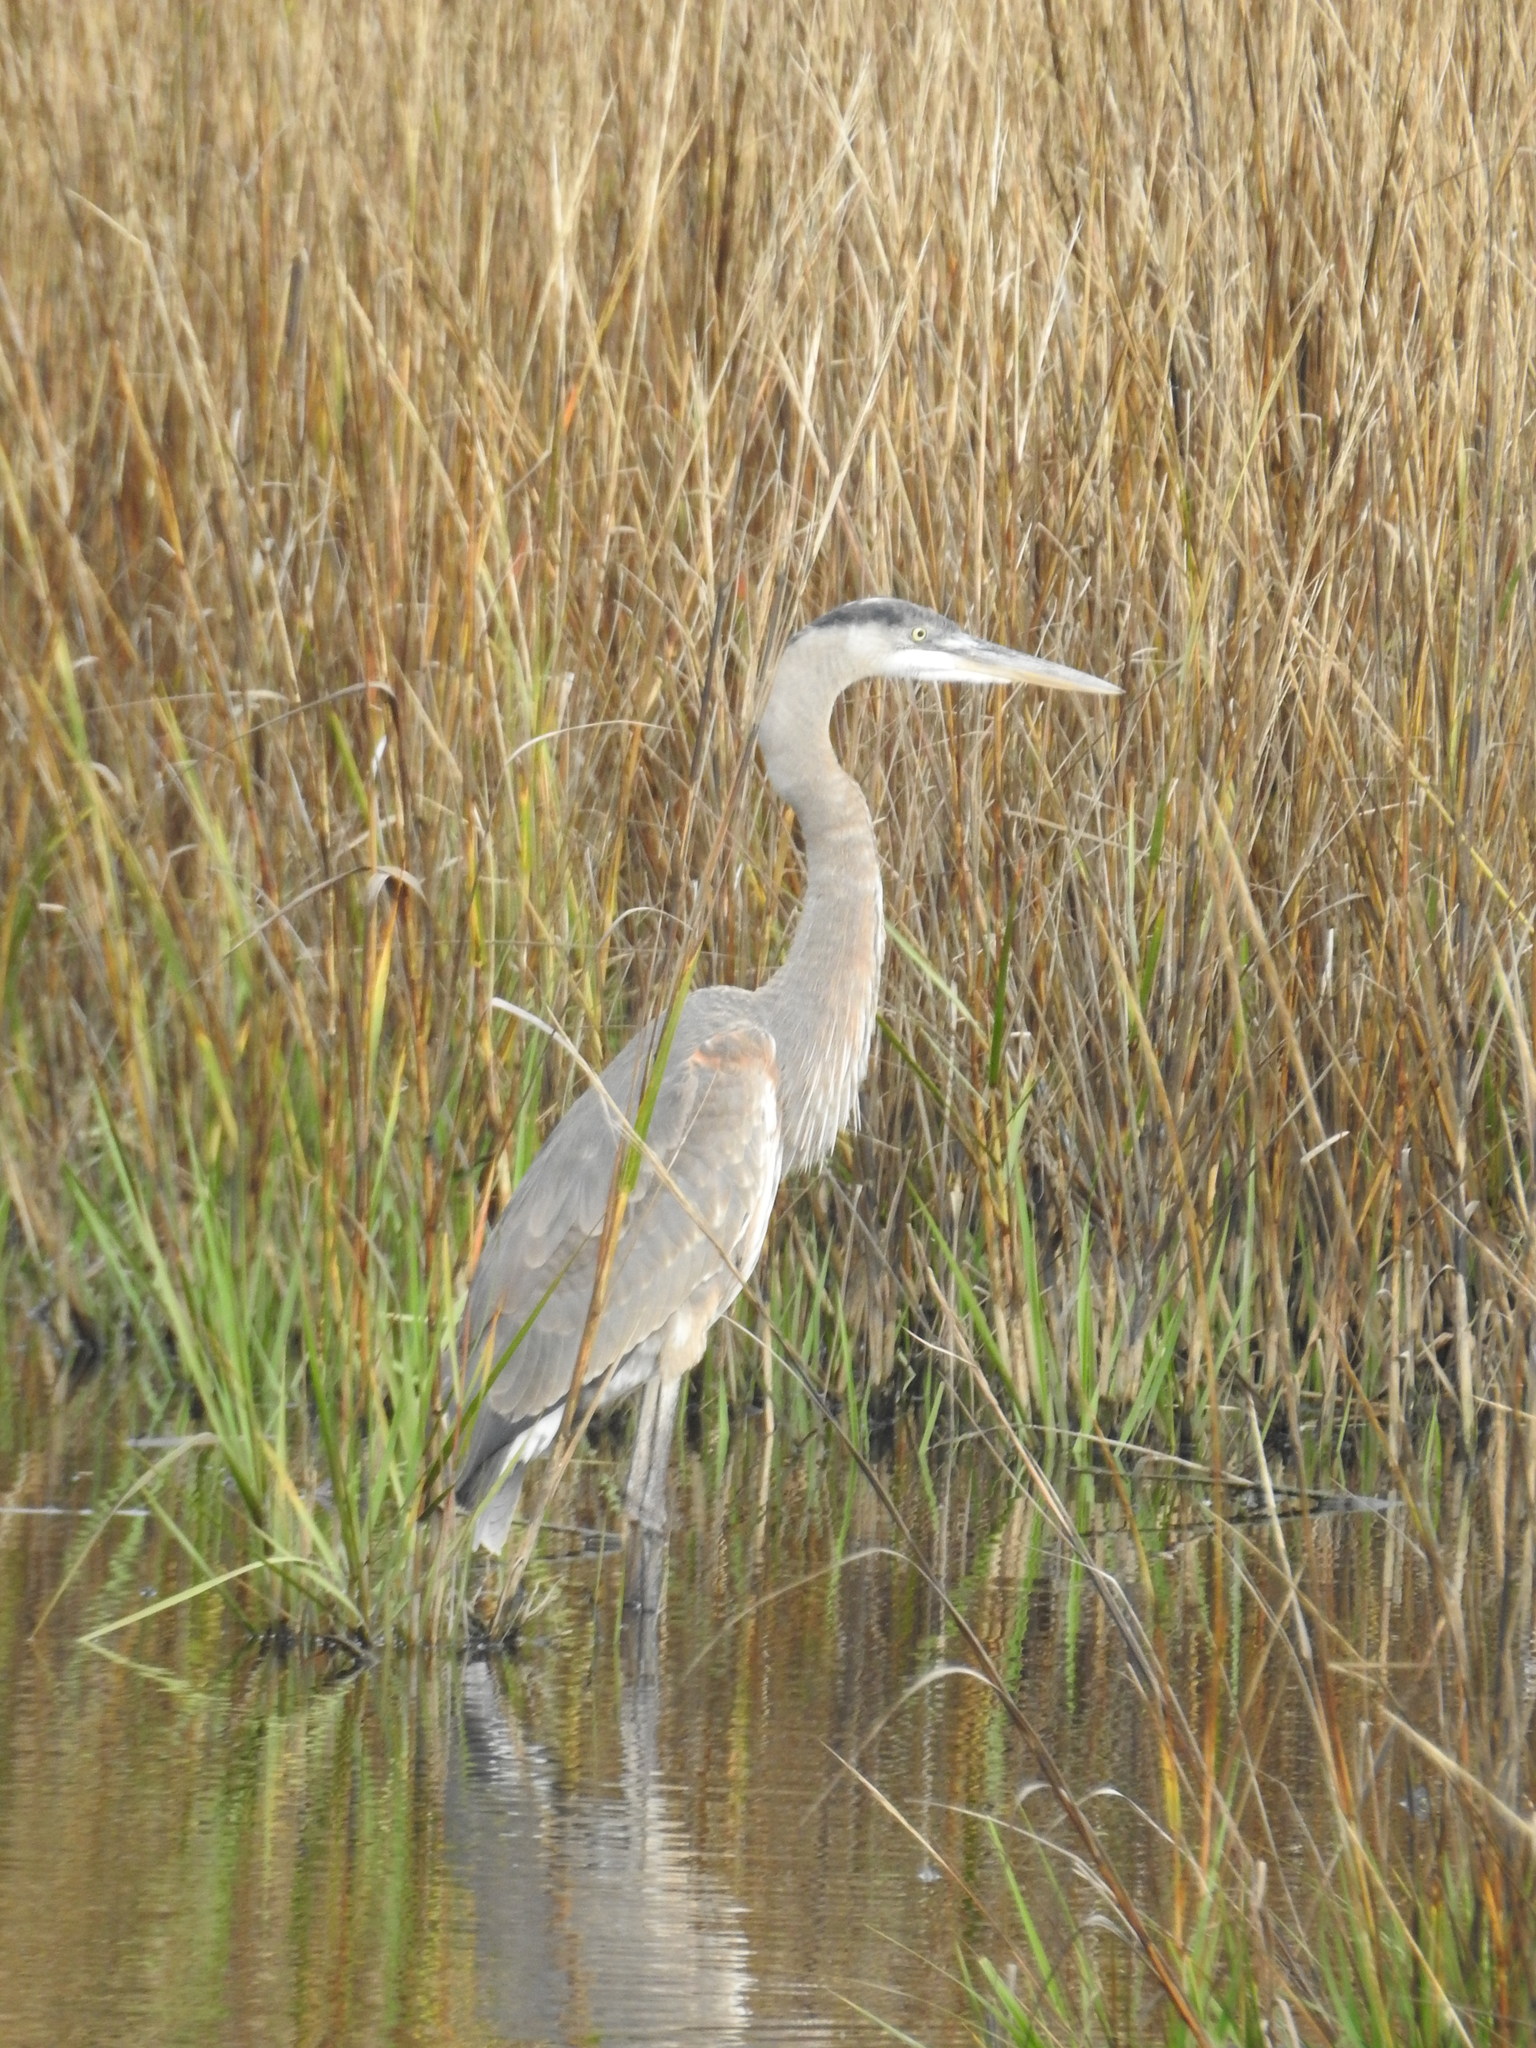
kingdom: Animalia
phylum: Chordata
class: Aves
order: Pelecaniformes
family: Ardeidae
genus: Ardea
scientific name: Ardea herodias
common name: Great blue heron
